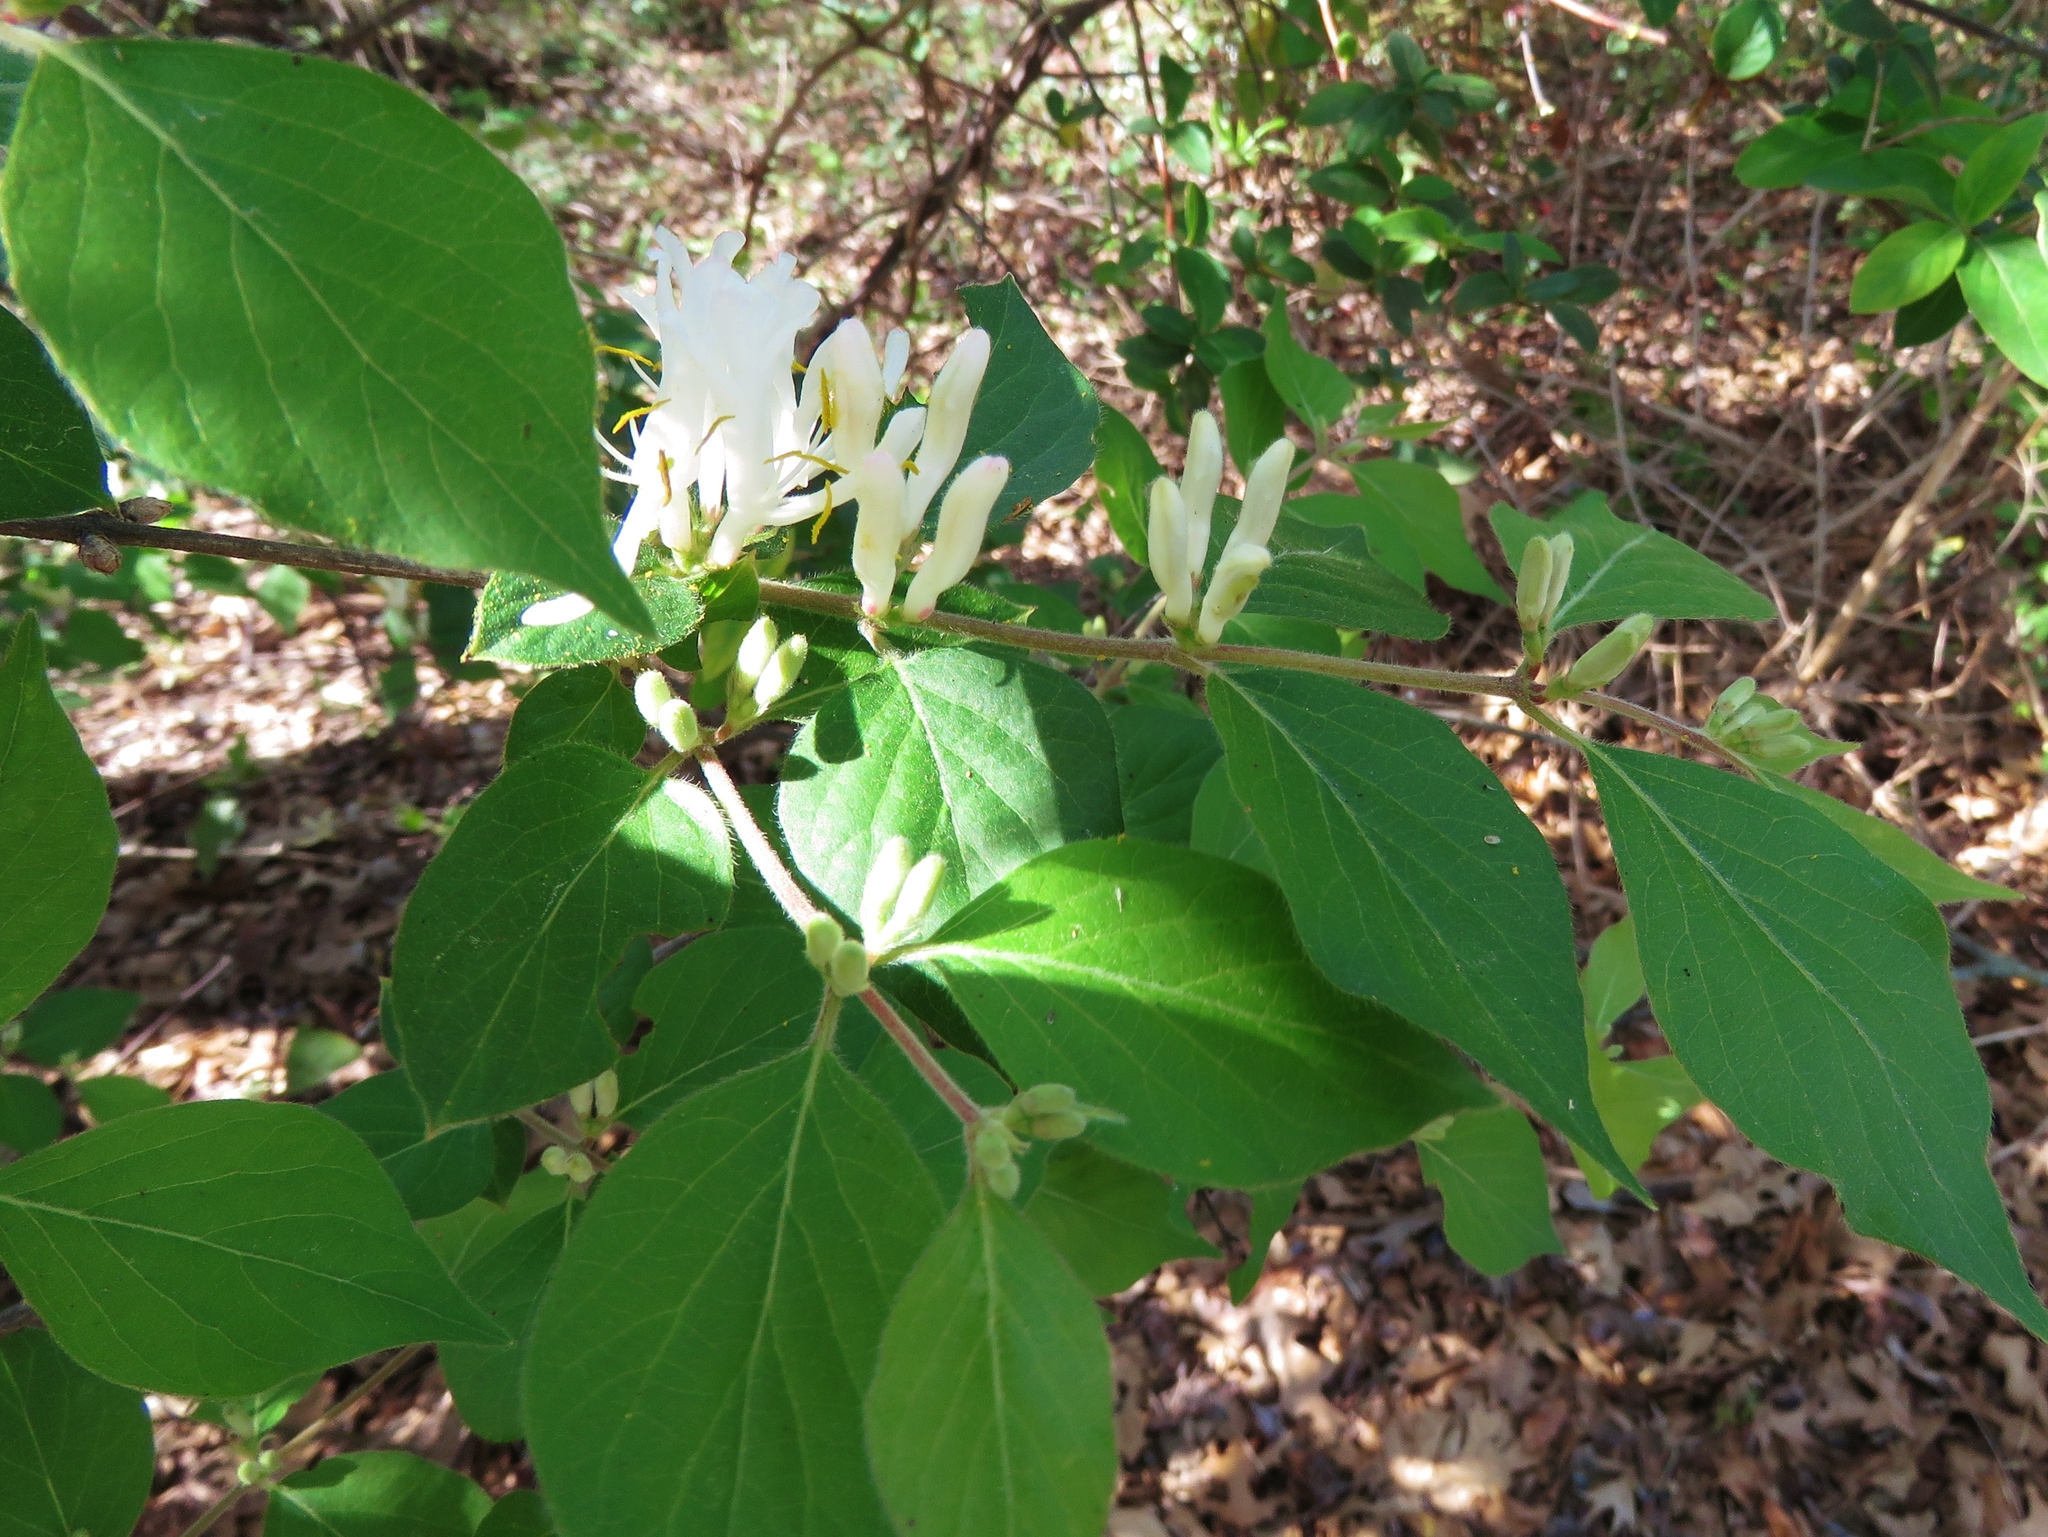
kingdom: Plantae
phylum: Tracheophyta
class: Magnoliopsida
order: Dipsacales
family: Caprifoliaceae
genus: Lonicera
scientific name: Lonicera maackii
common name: Amur honeysuckle
